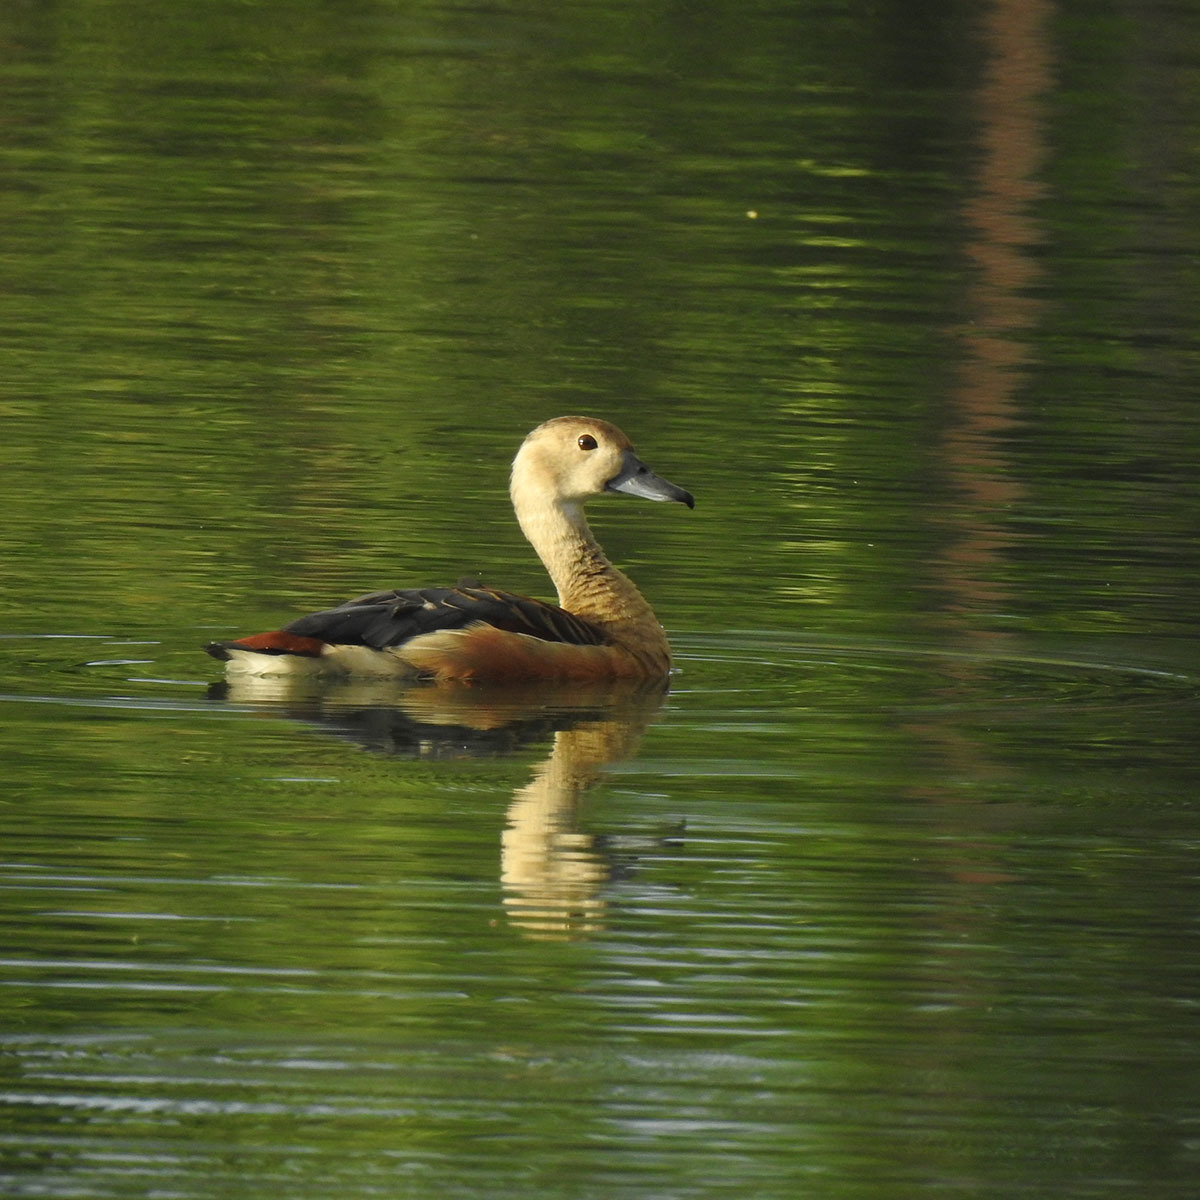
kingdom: Animalia
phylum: Chordata
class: Aves
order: Anseriformes
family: Anatidae
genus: Dendrocygna
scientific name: Dendrocygna javanica
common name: Lesser whistling-duck
